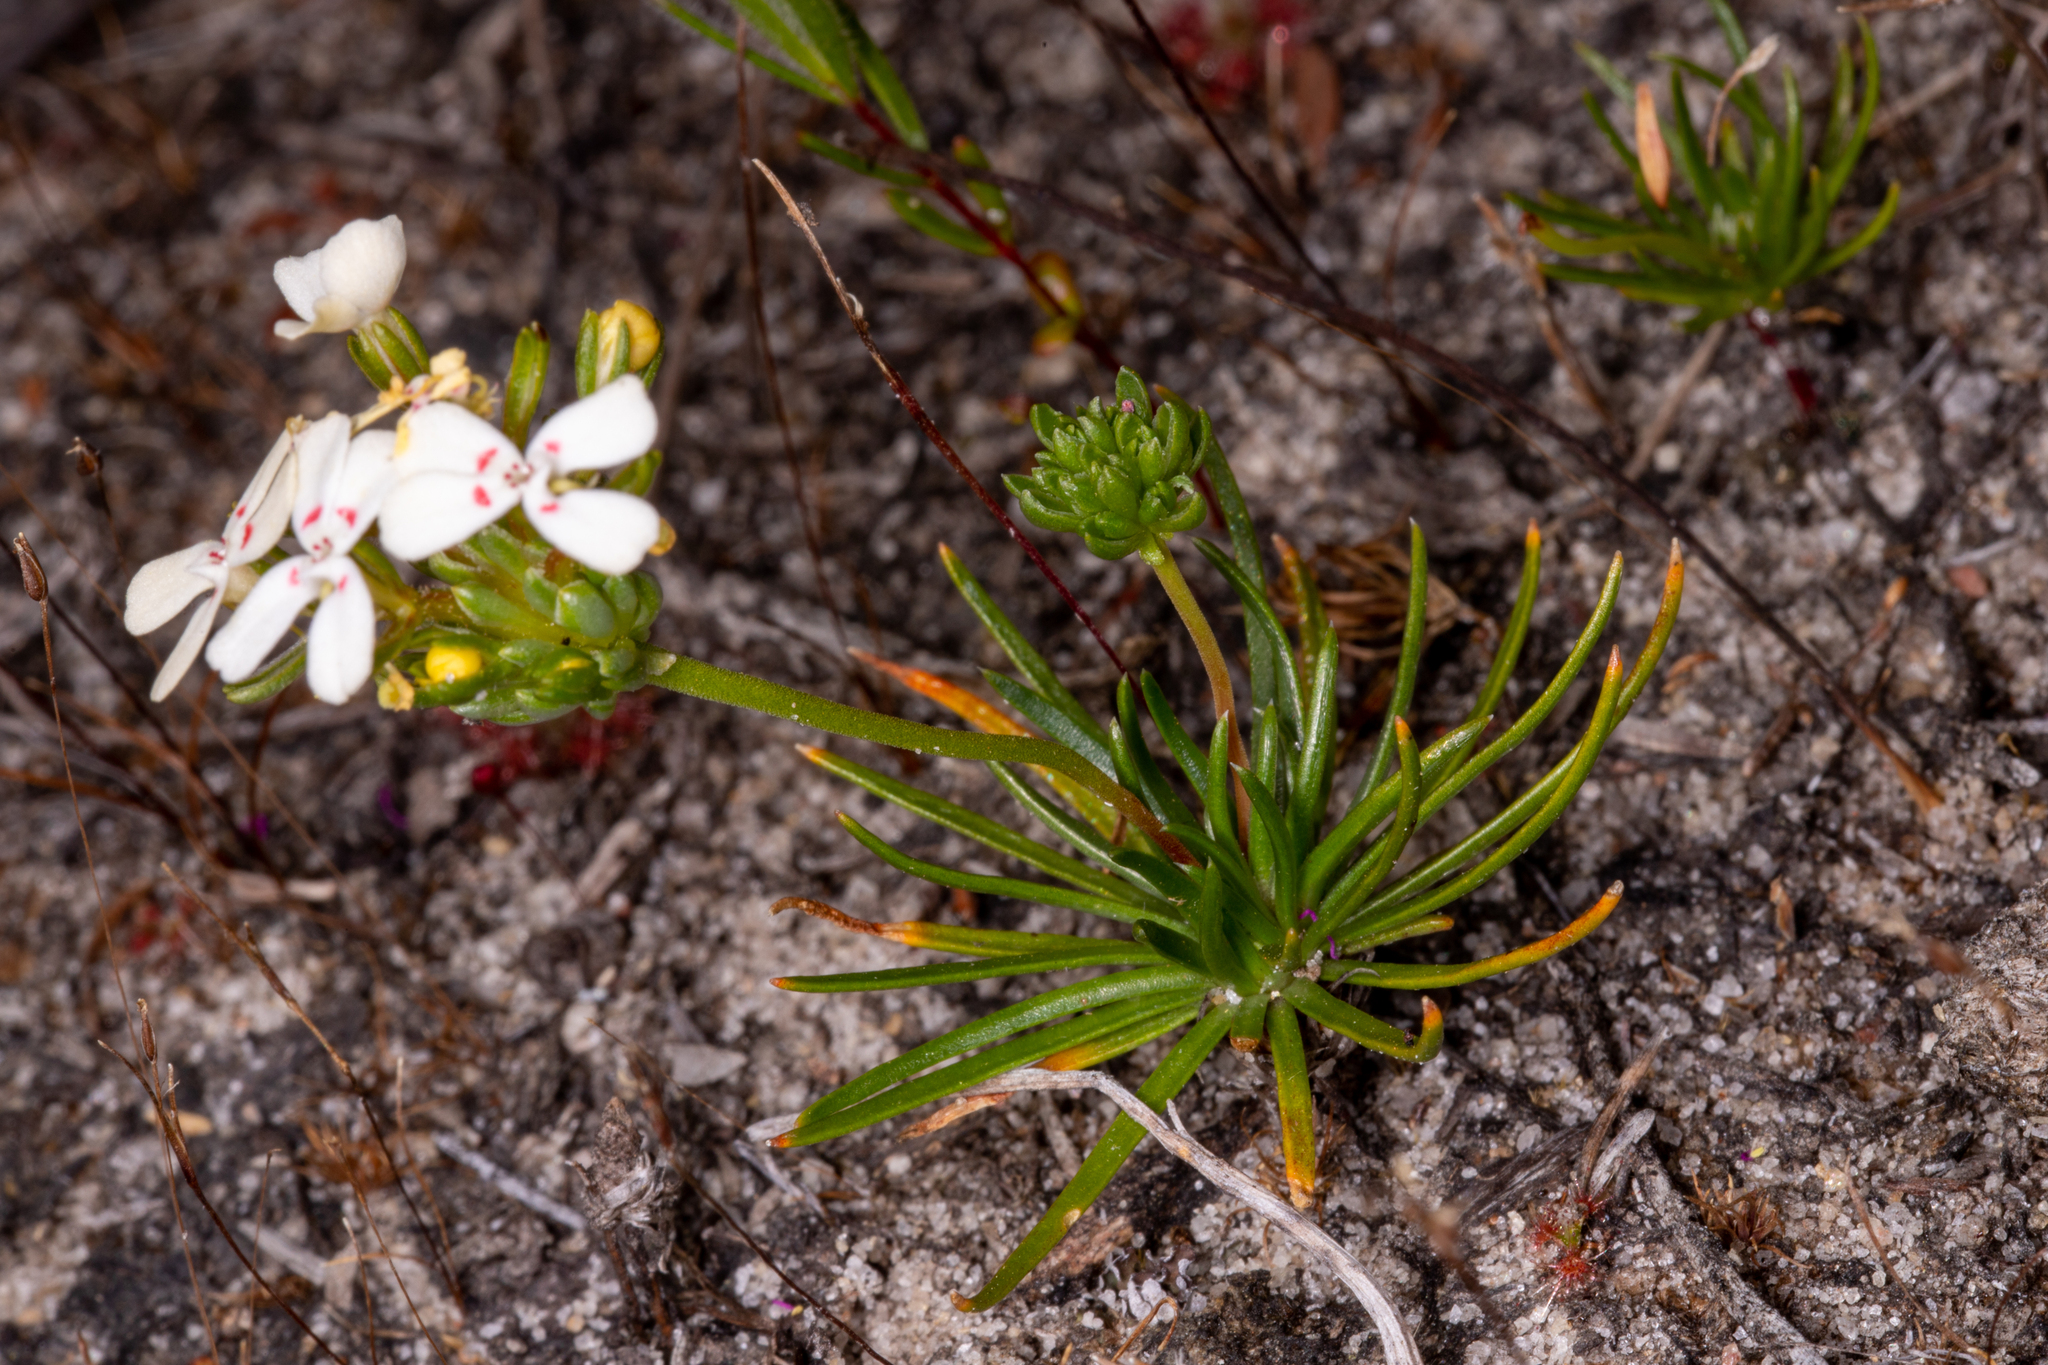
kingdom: Plantae
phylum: Tracheophyta
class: Magnoliopsida
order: Asterales
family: Stylidiaceae
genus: Stylidium
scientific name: Stylidium guttatum
